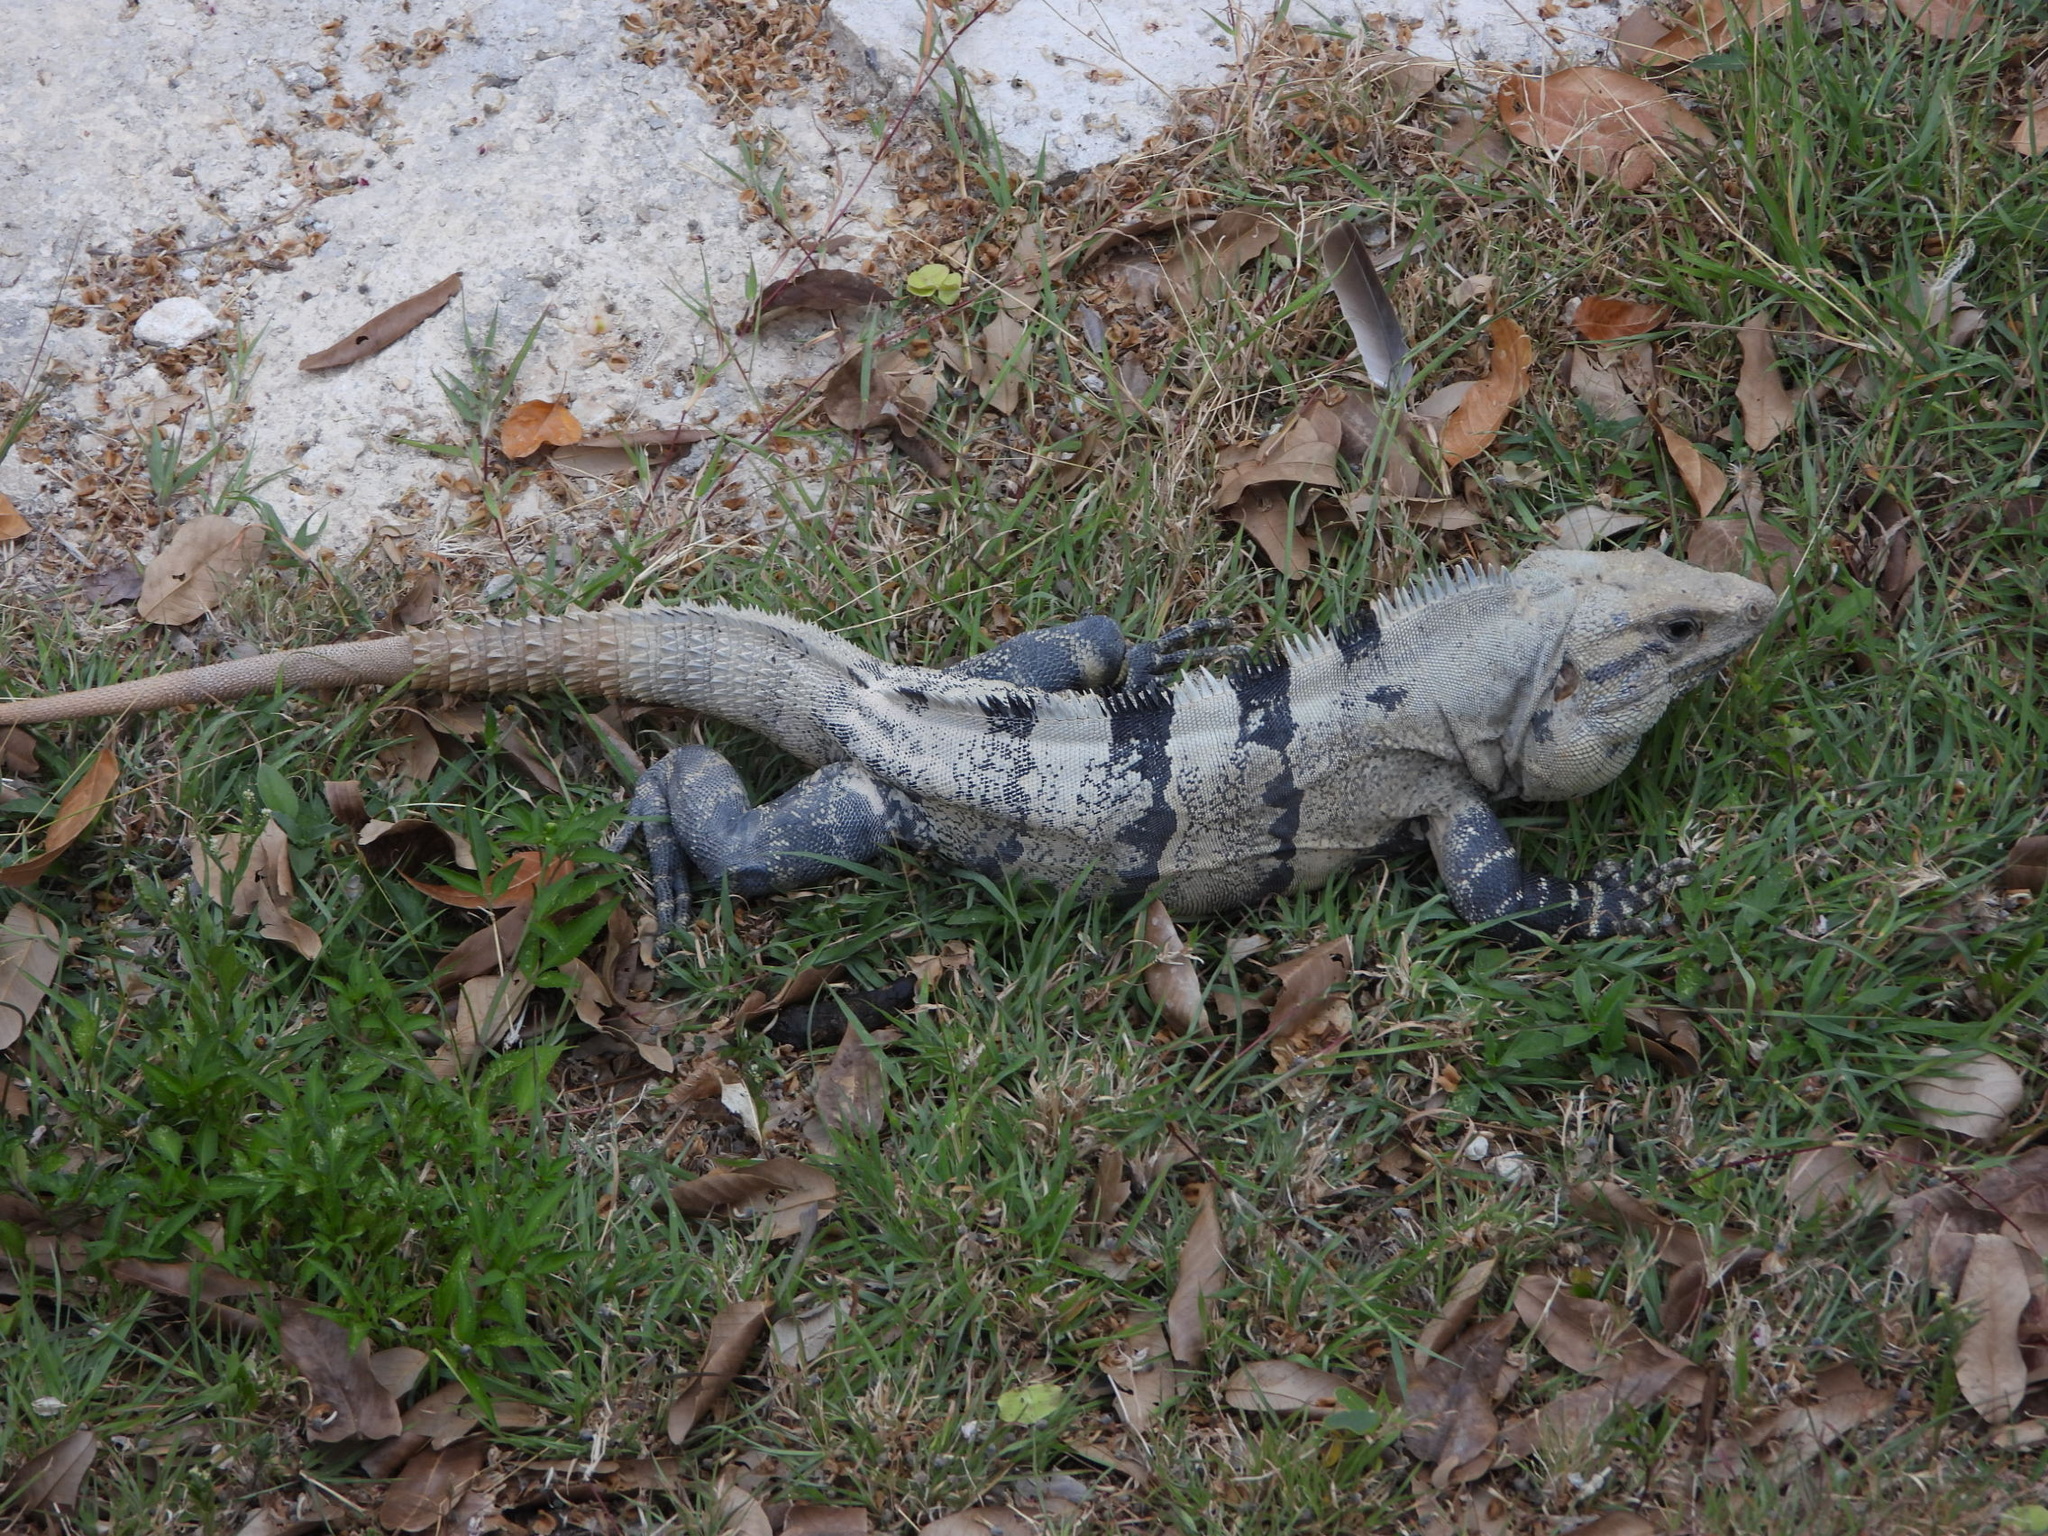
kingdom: Animalia
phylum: Chordata
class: Squamata
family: Iguanidae
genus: Ctenosaura
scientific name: Ctenosaura similis
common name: Black spiny-tailed iguana
